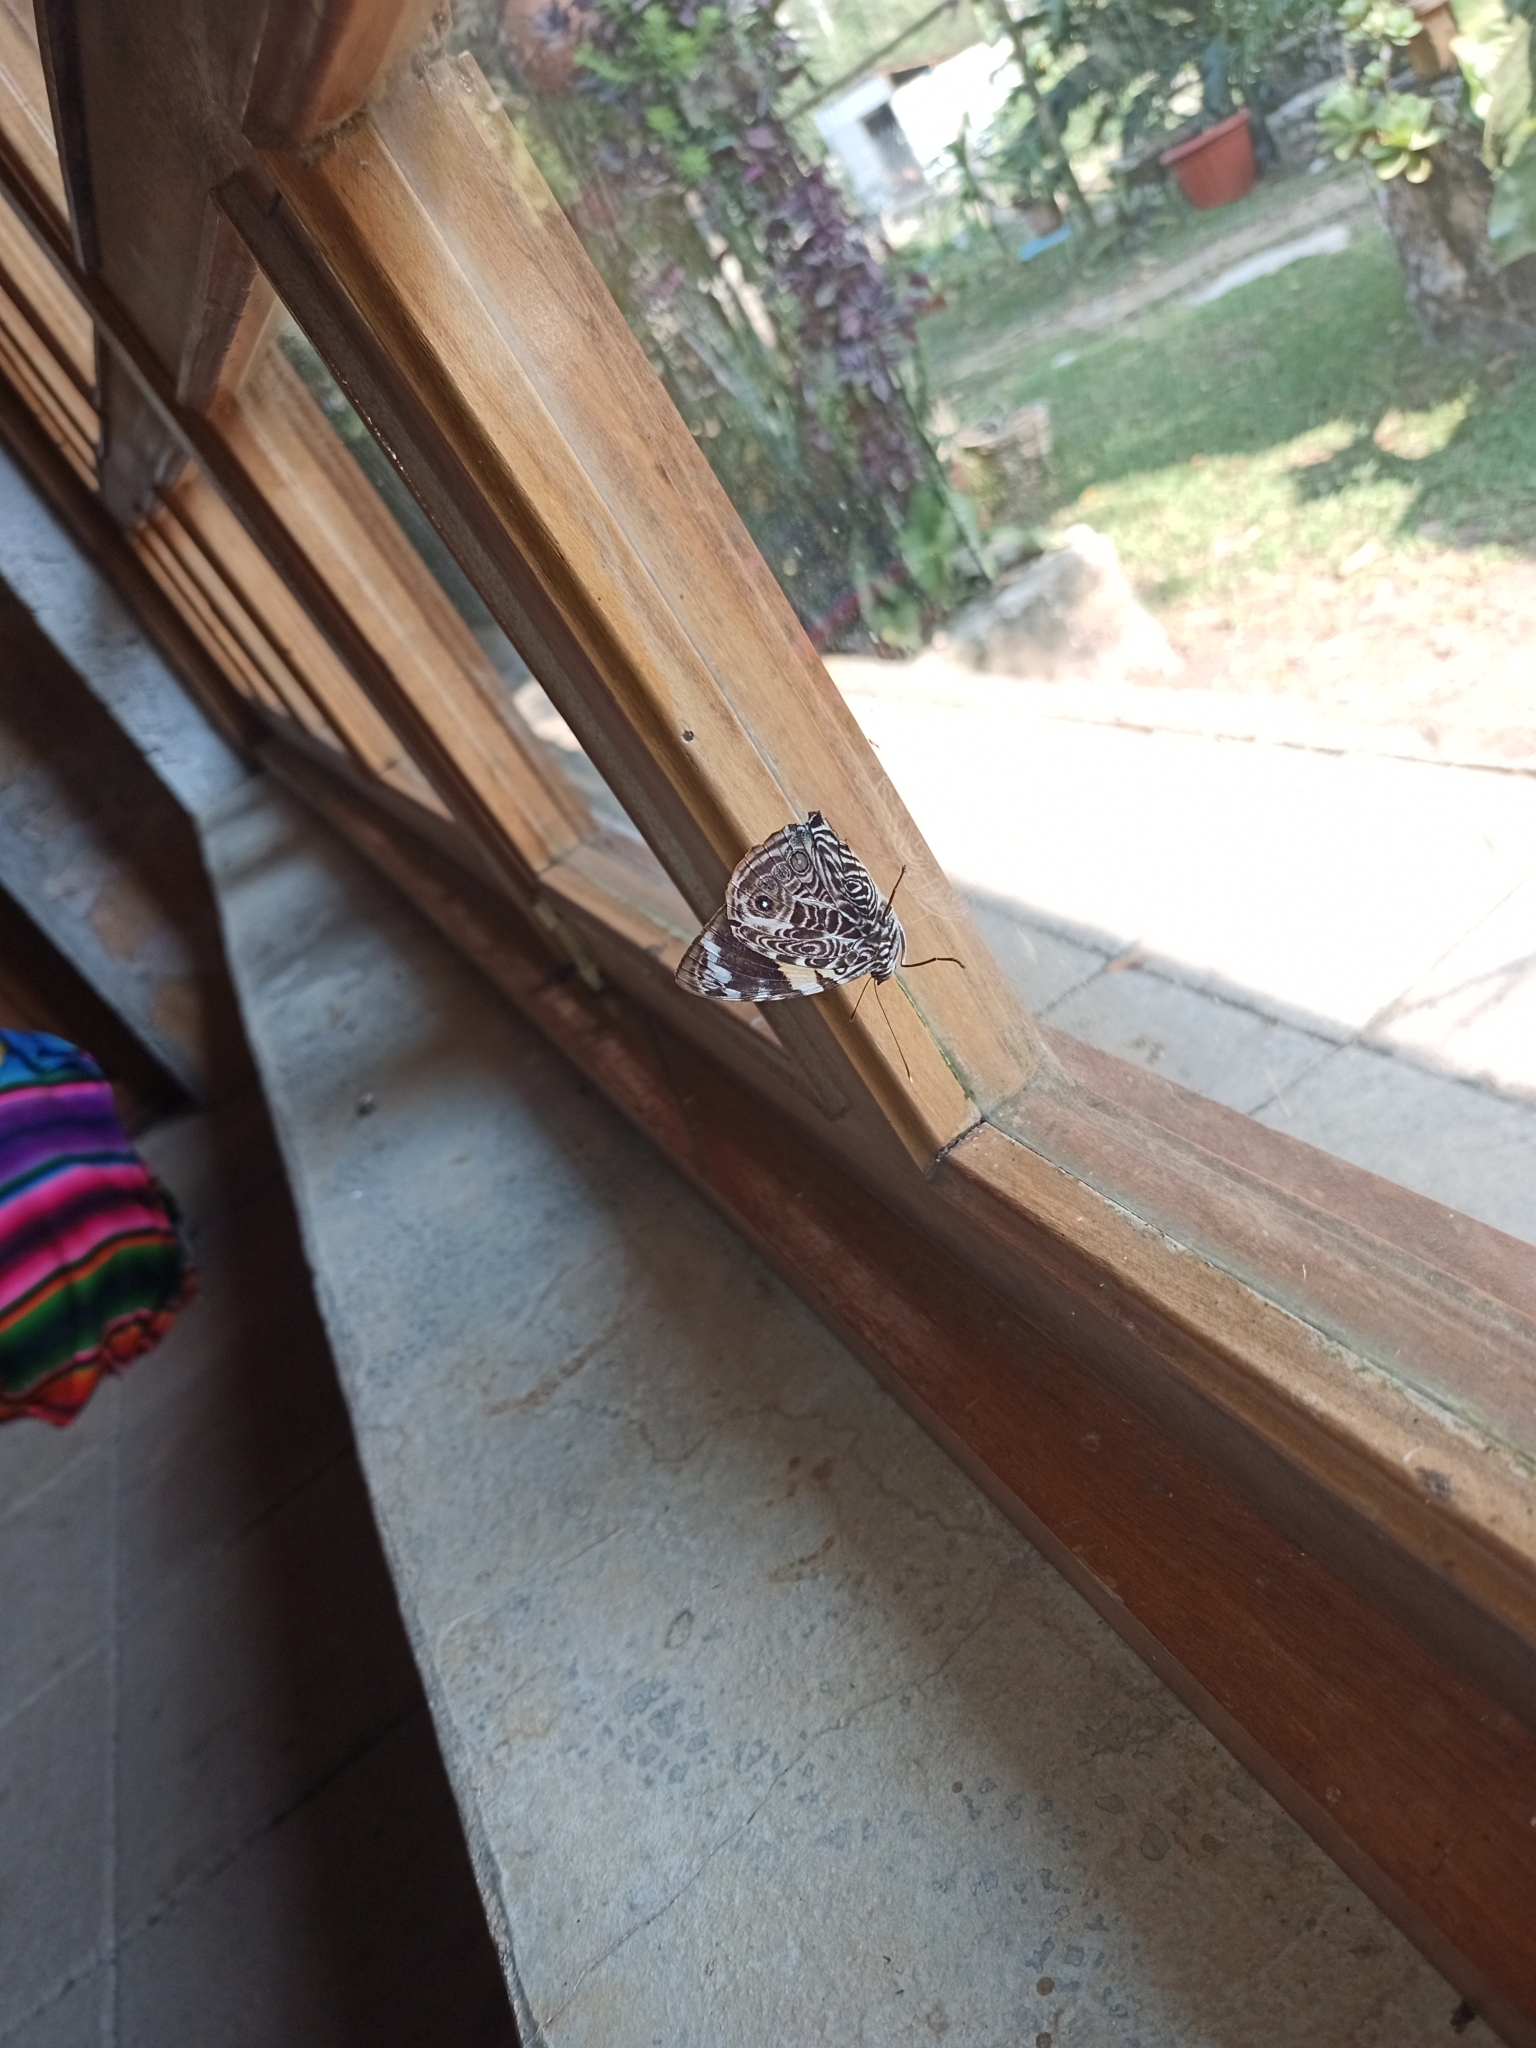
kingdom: Animalia
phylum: Arthropoda
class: Insecta
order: Lepidoptera
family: Nymphalidae
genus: Smyrna
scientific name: Smyrna blomfildia
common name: Blomfild's beauty
